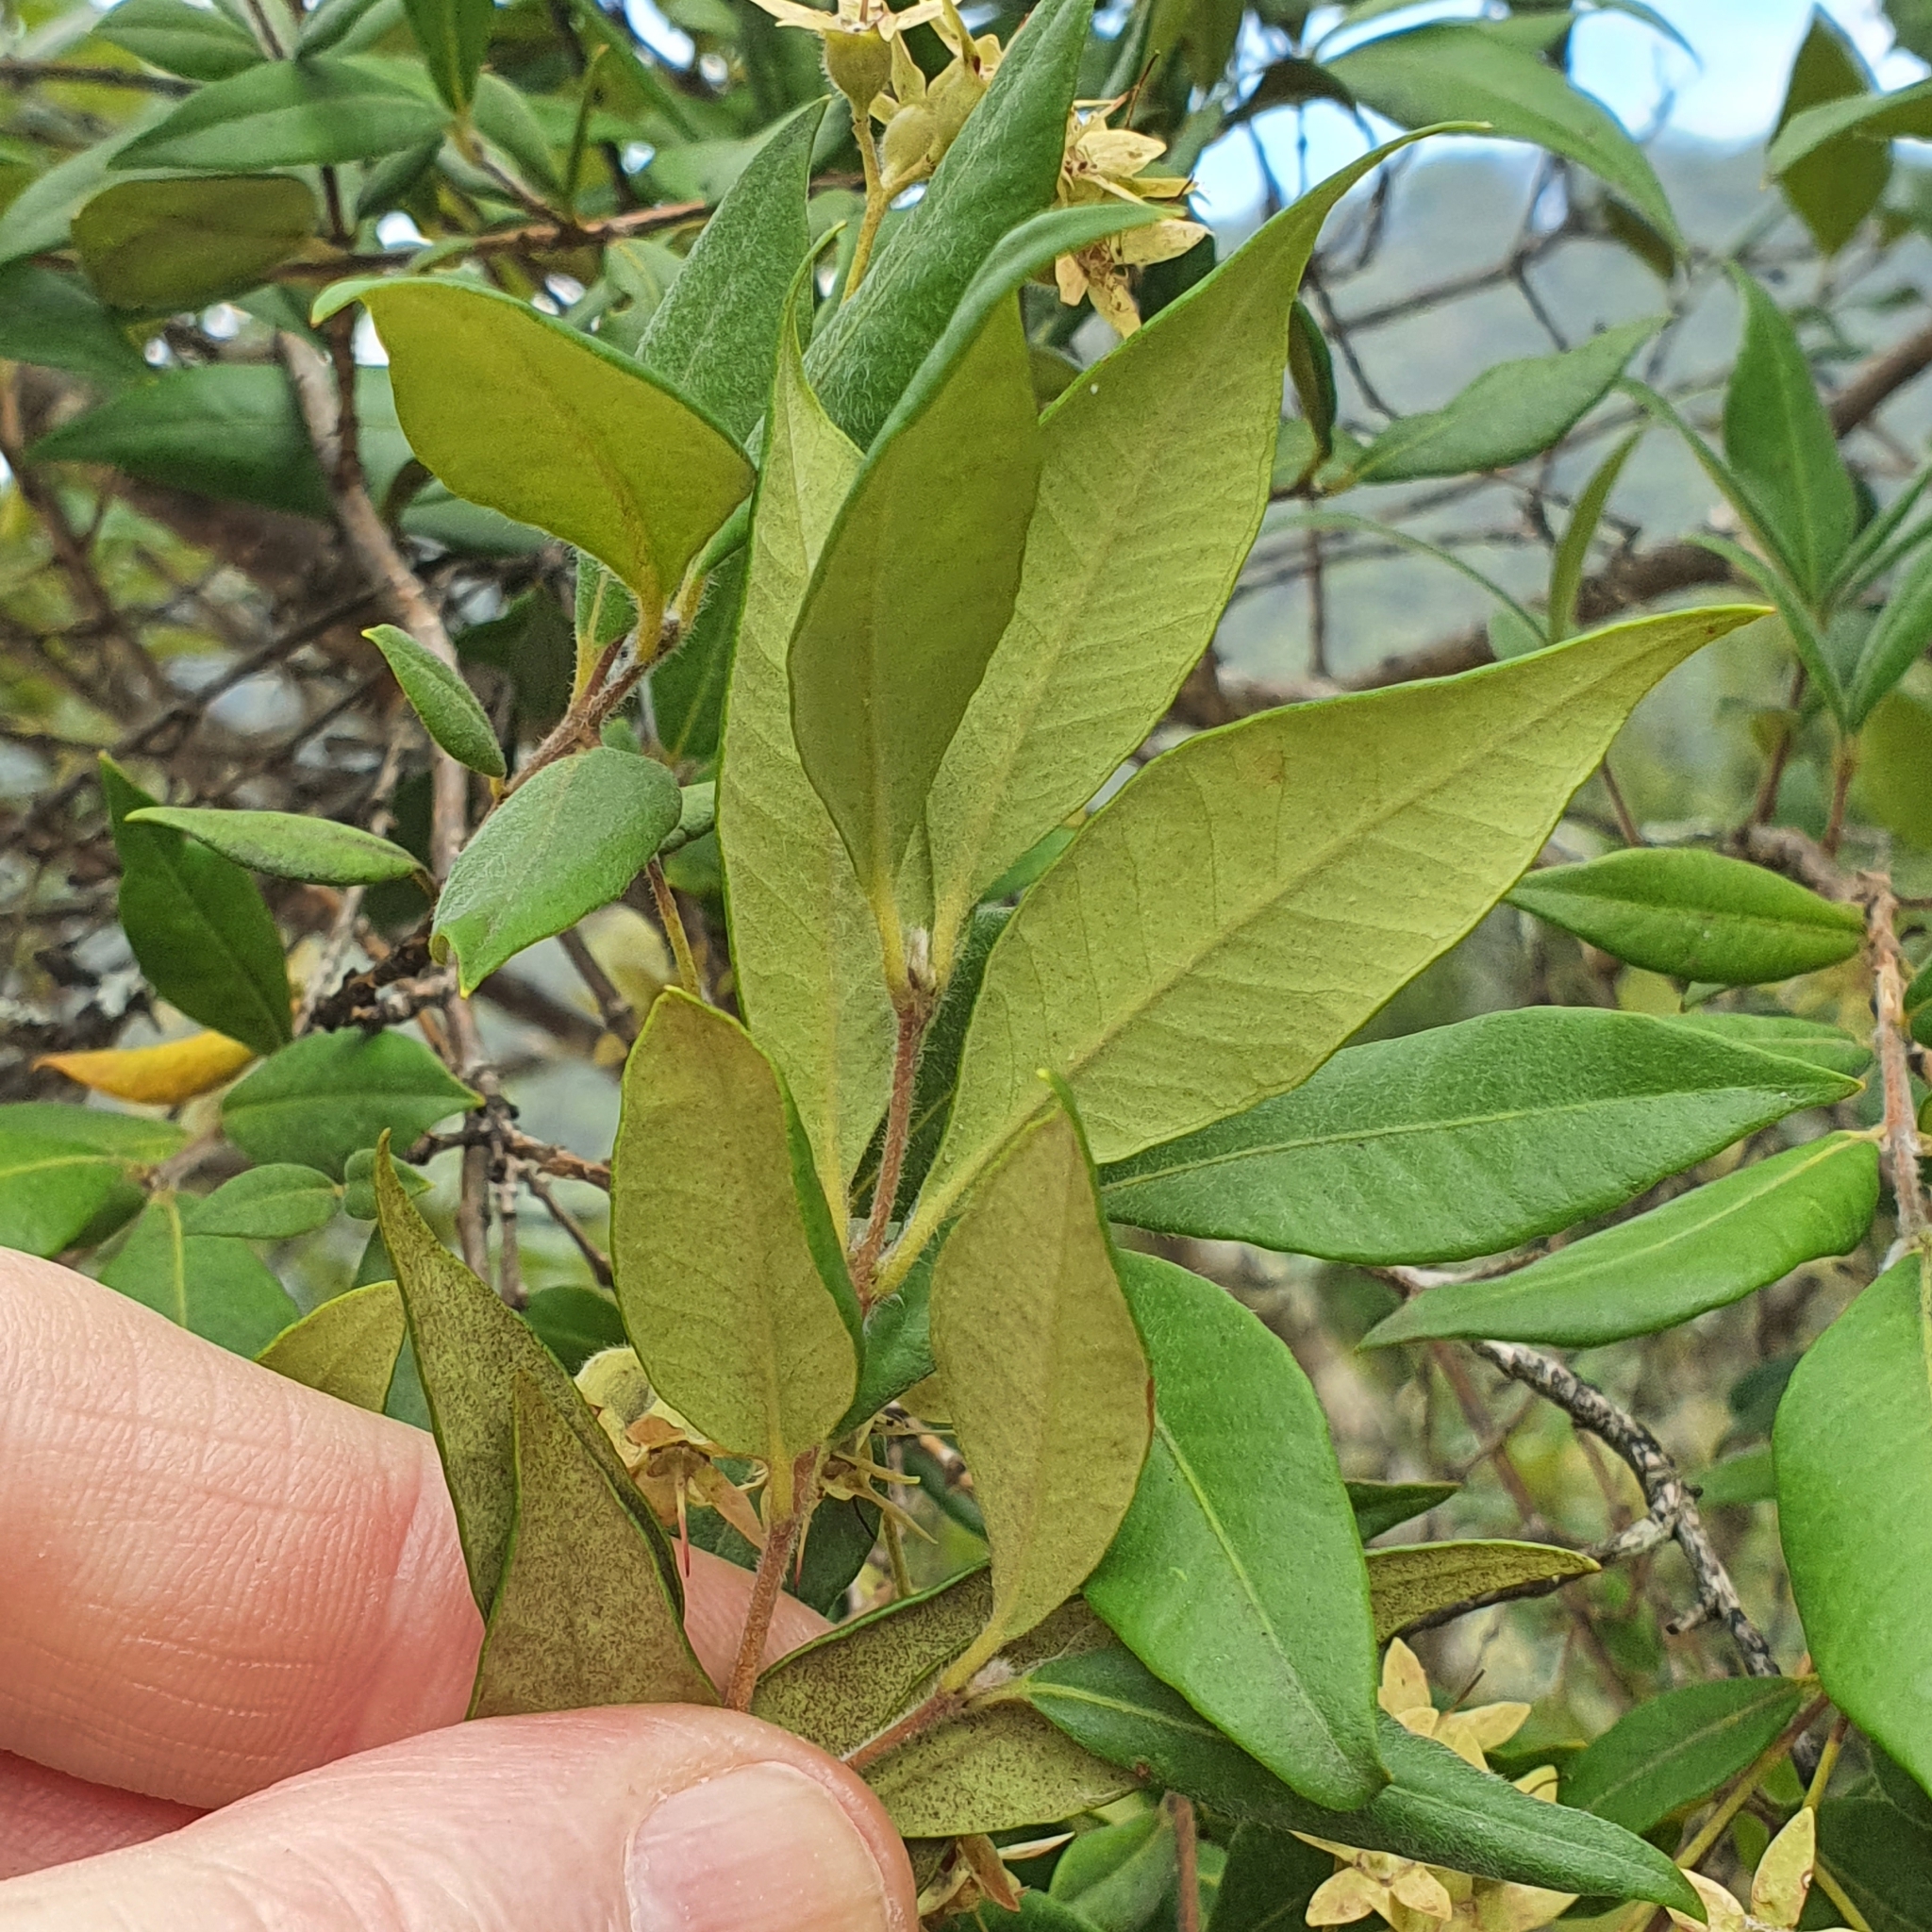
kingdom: Plantae
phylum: Tracheophyta
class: Magnoliopsida
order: Myrtales
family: Myrtaceae
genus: Backhousia
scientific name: Backhousia myrtifolia
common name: Carrol
